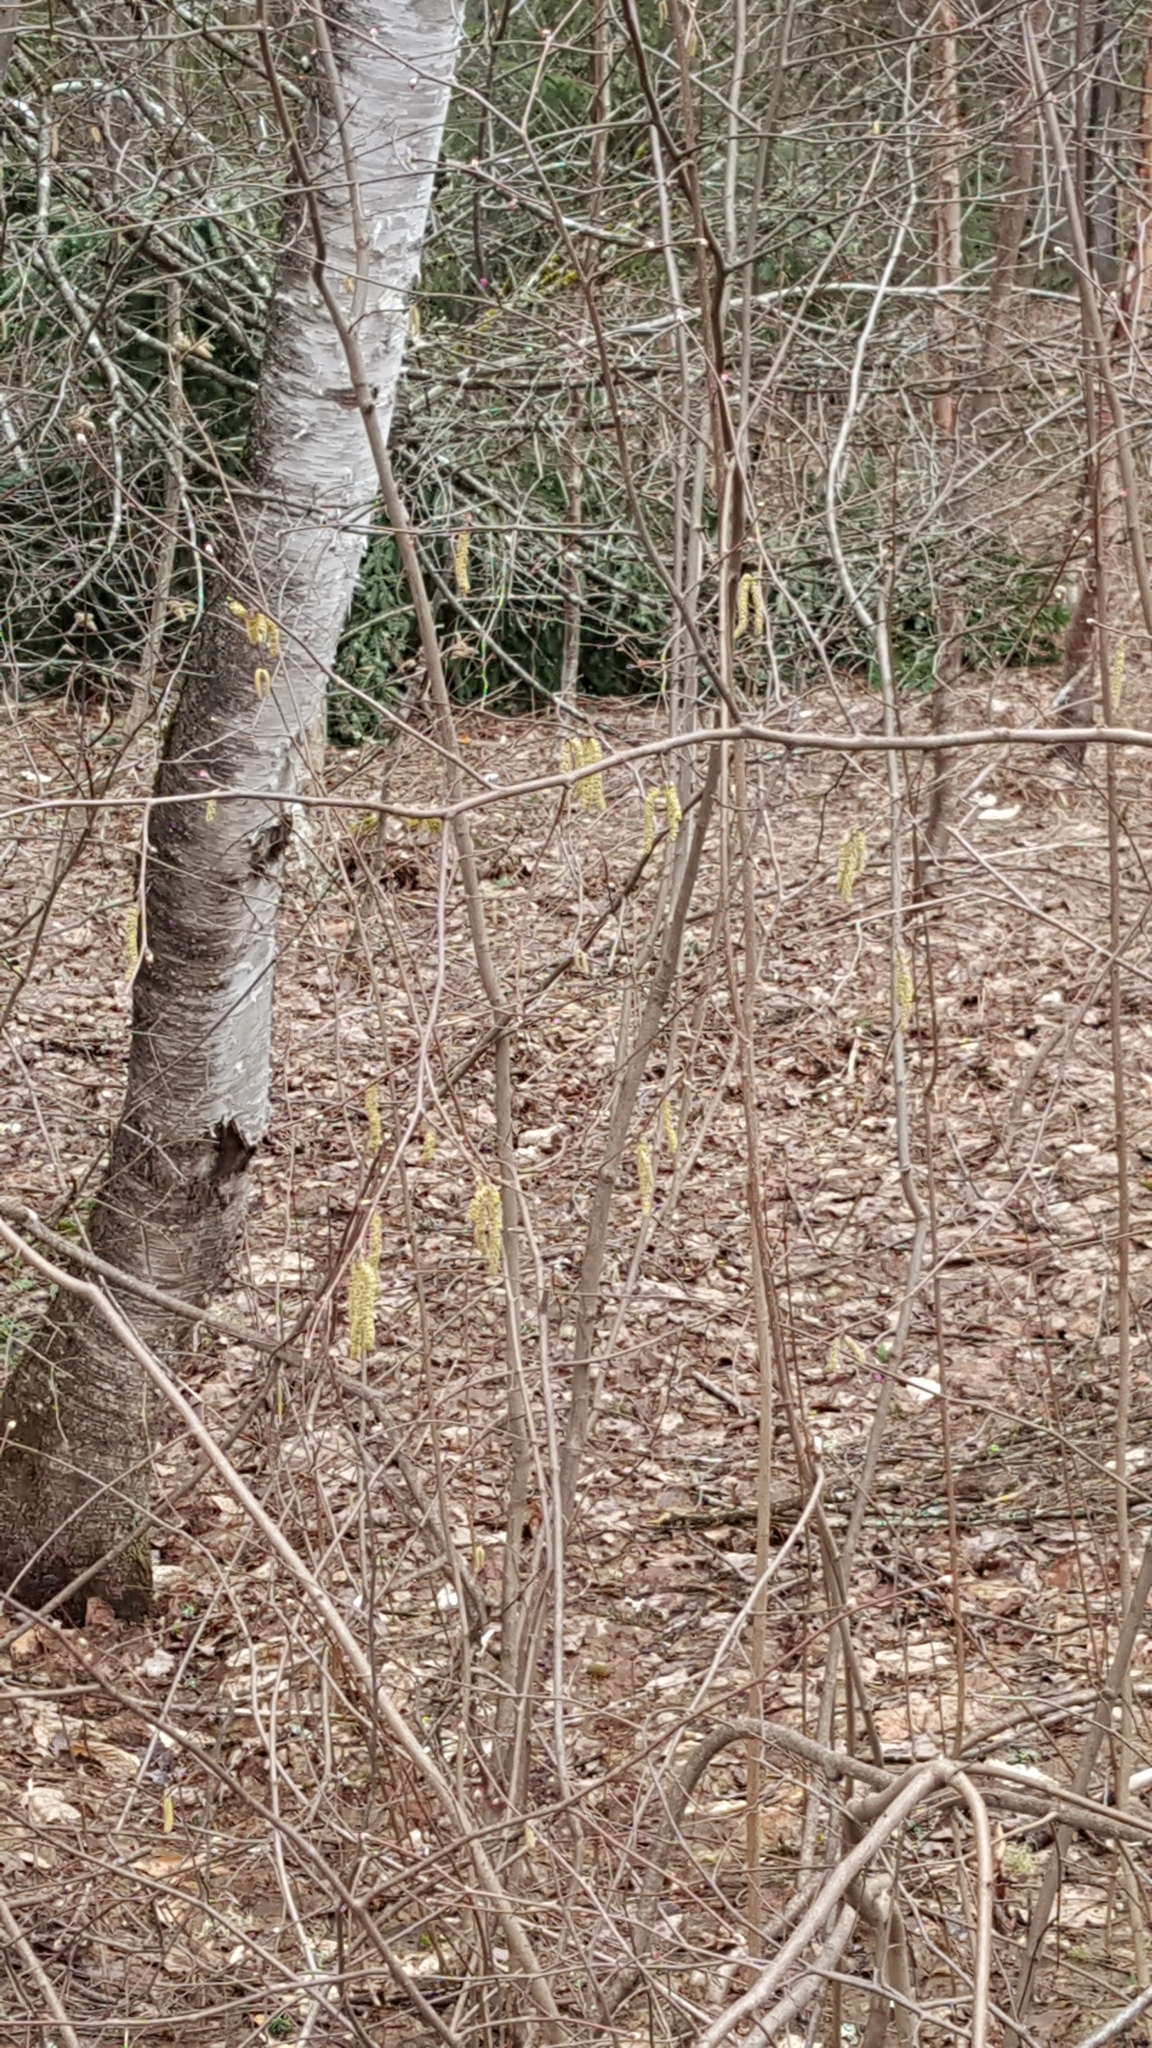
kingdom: Plantae
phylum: Tracheophyta
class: Magnoliopsida
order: Fagales
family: Betulaceae
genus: Corylus
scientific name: Corylus cornuta
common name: Beaked hazel
